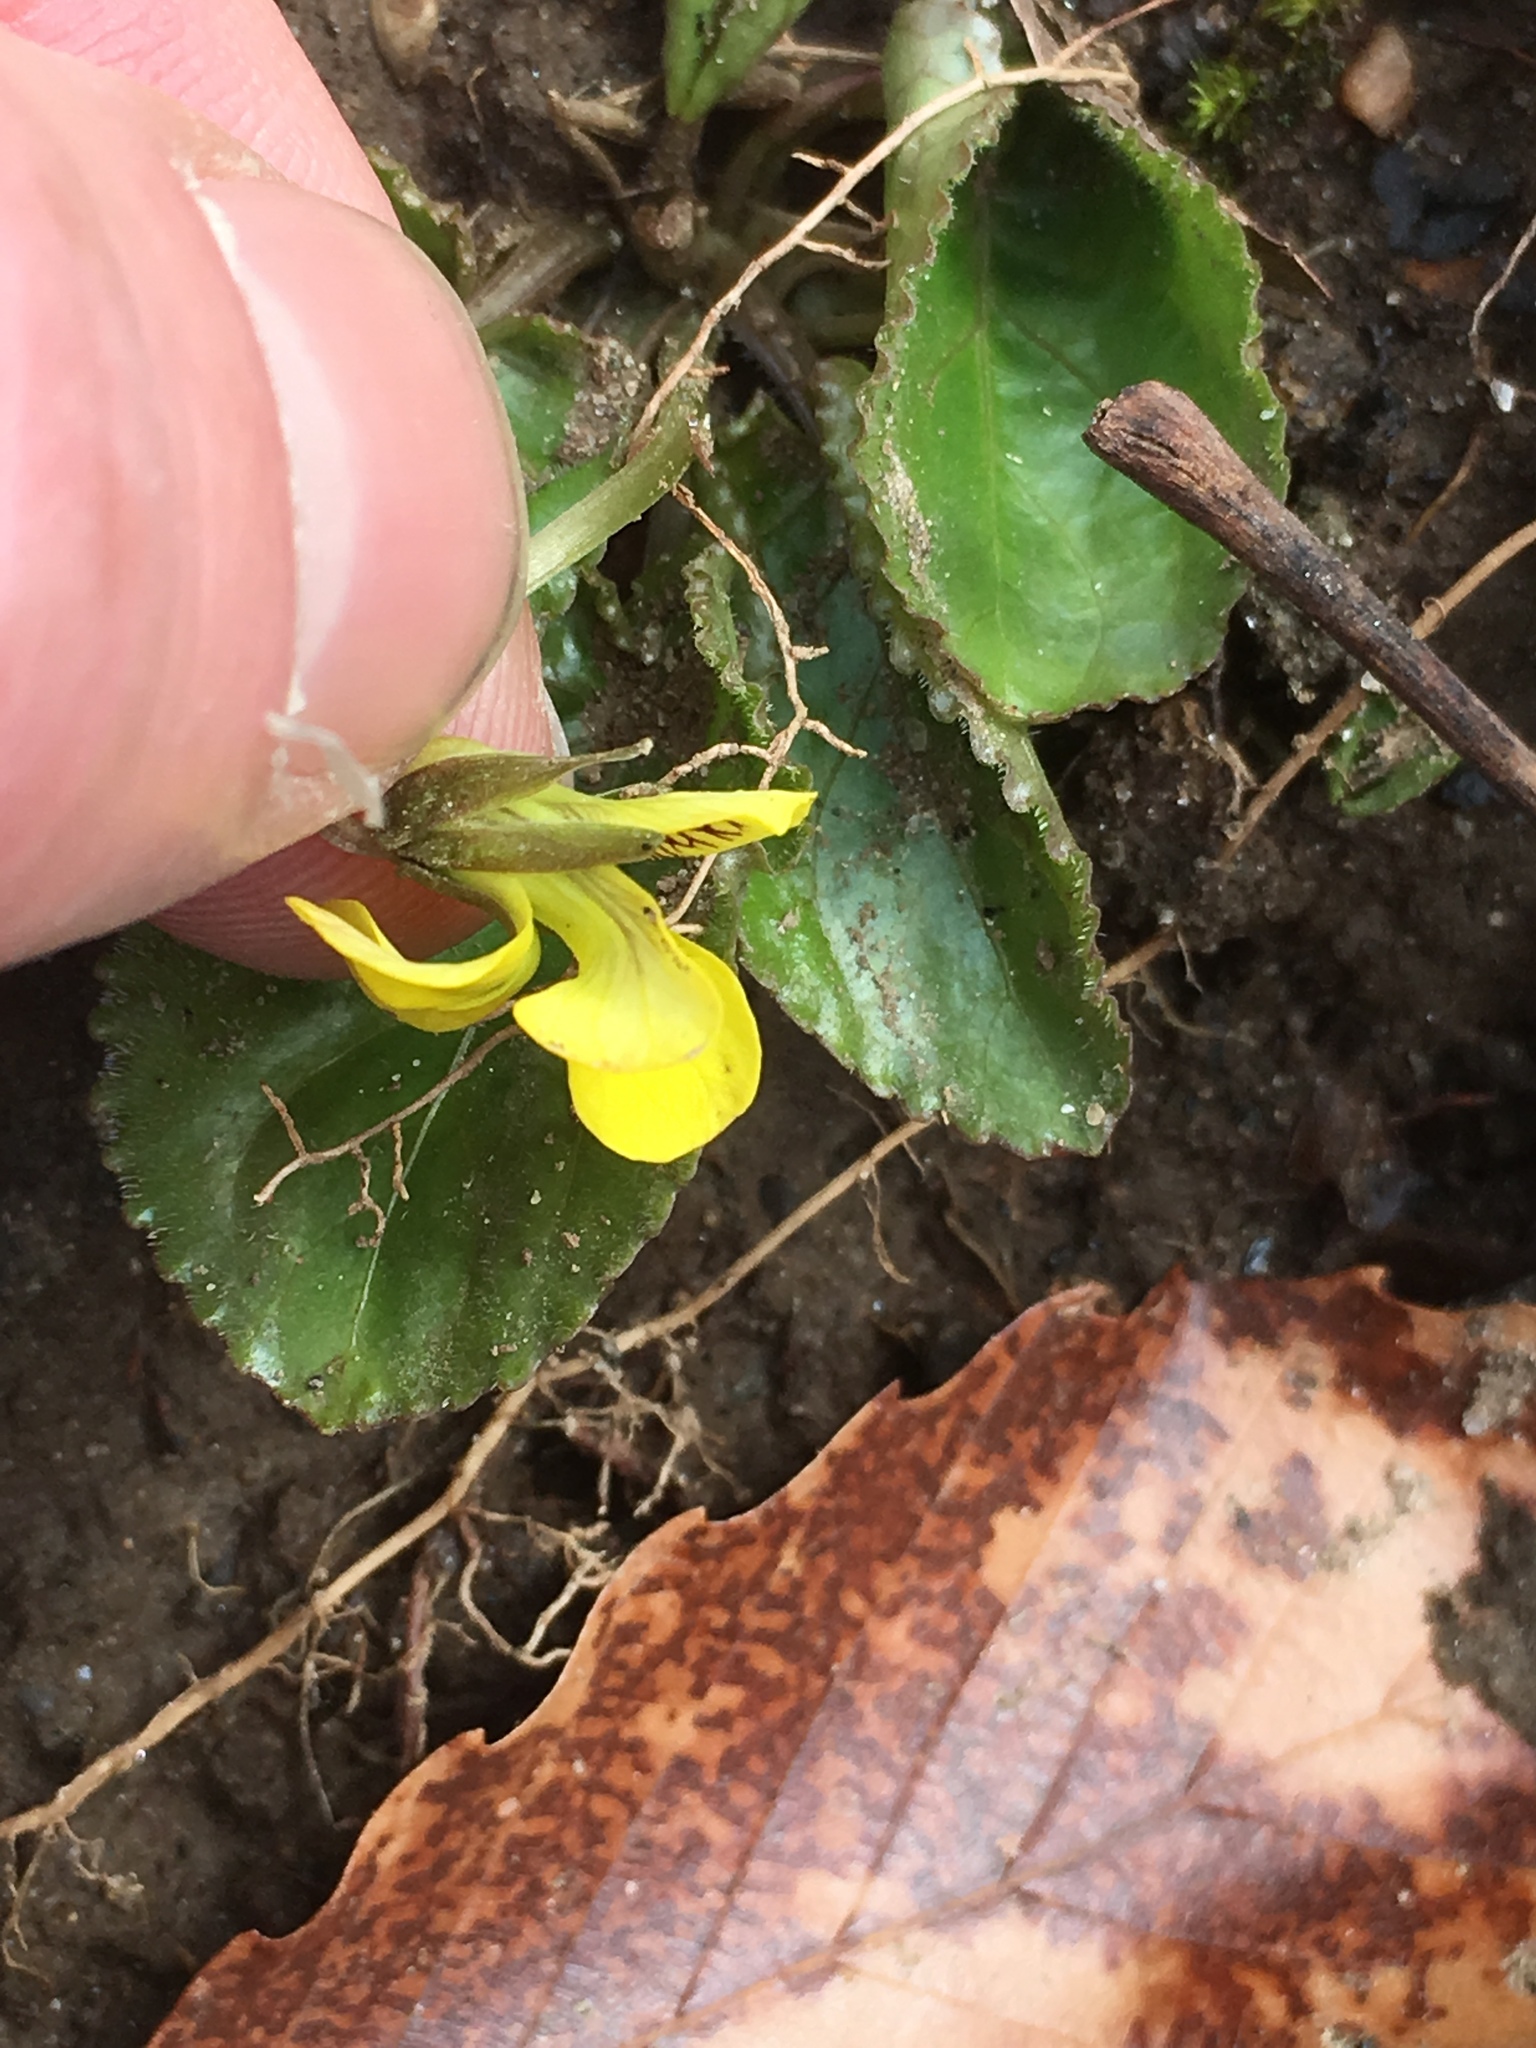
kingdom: Plantae
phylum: Tracheophyta
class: Magnoliopsida
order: Malpighiales
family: Violaceae
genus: Viola
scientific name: Viola rotundifolia
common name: Early yellow violet
